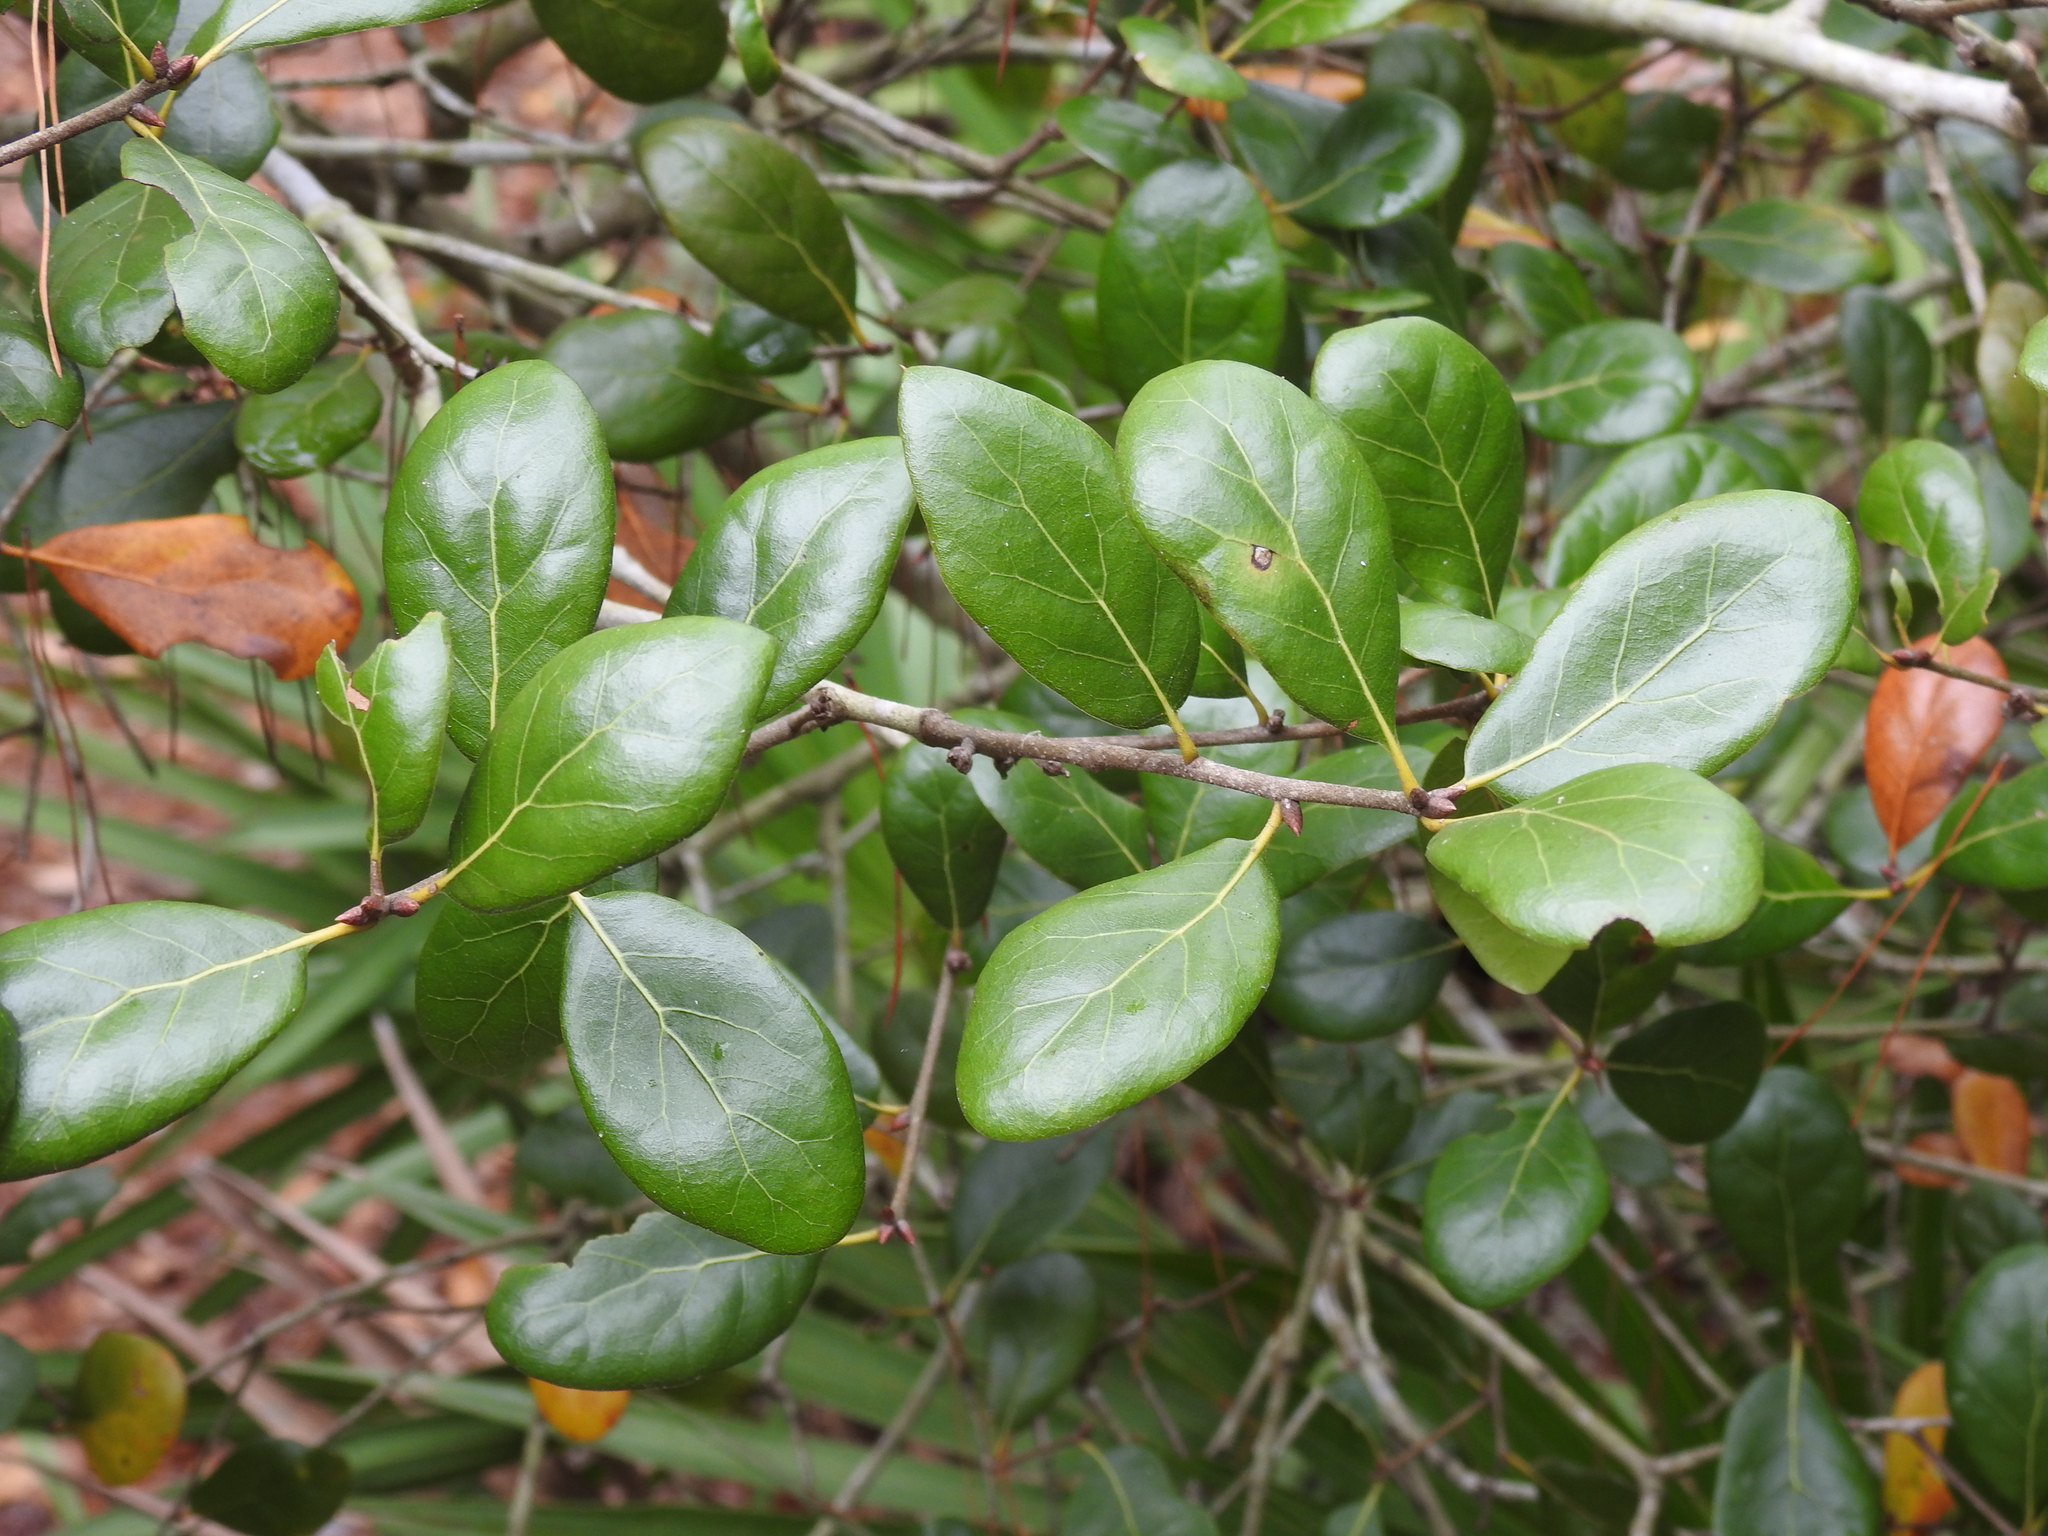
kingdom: Plantae
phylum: Tracheophyta
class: Magnoliopsida
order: Fagales
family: Fagaceae
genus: Quercus
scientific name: Quercus myrtifolia
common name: Myrtle oak
